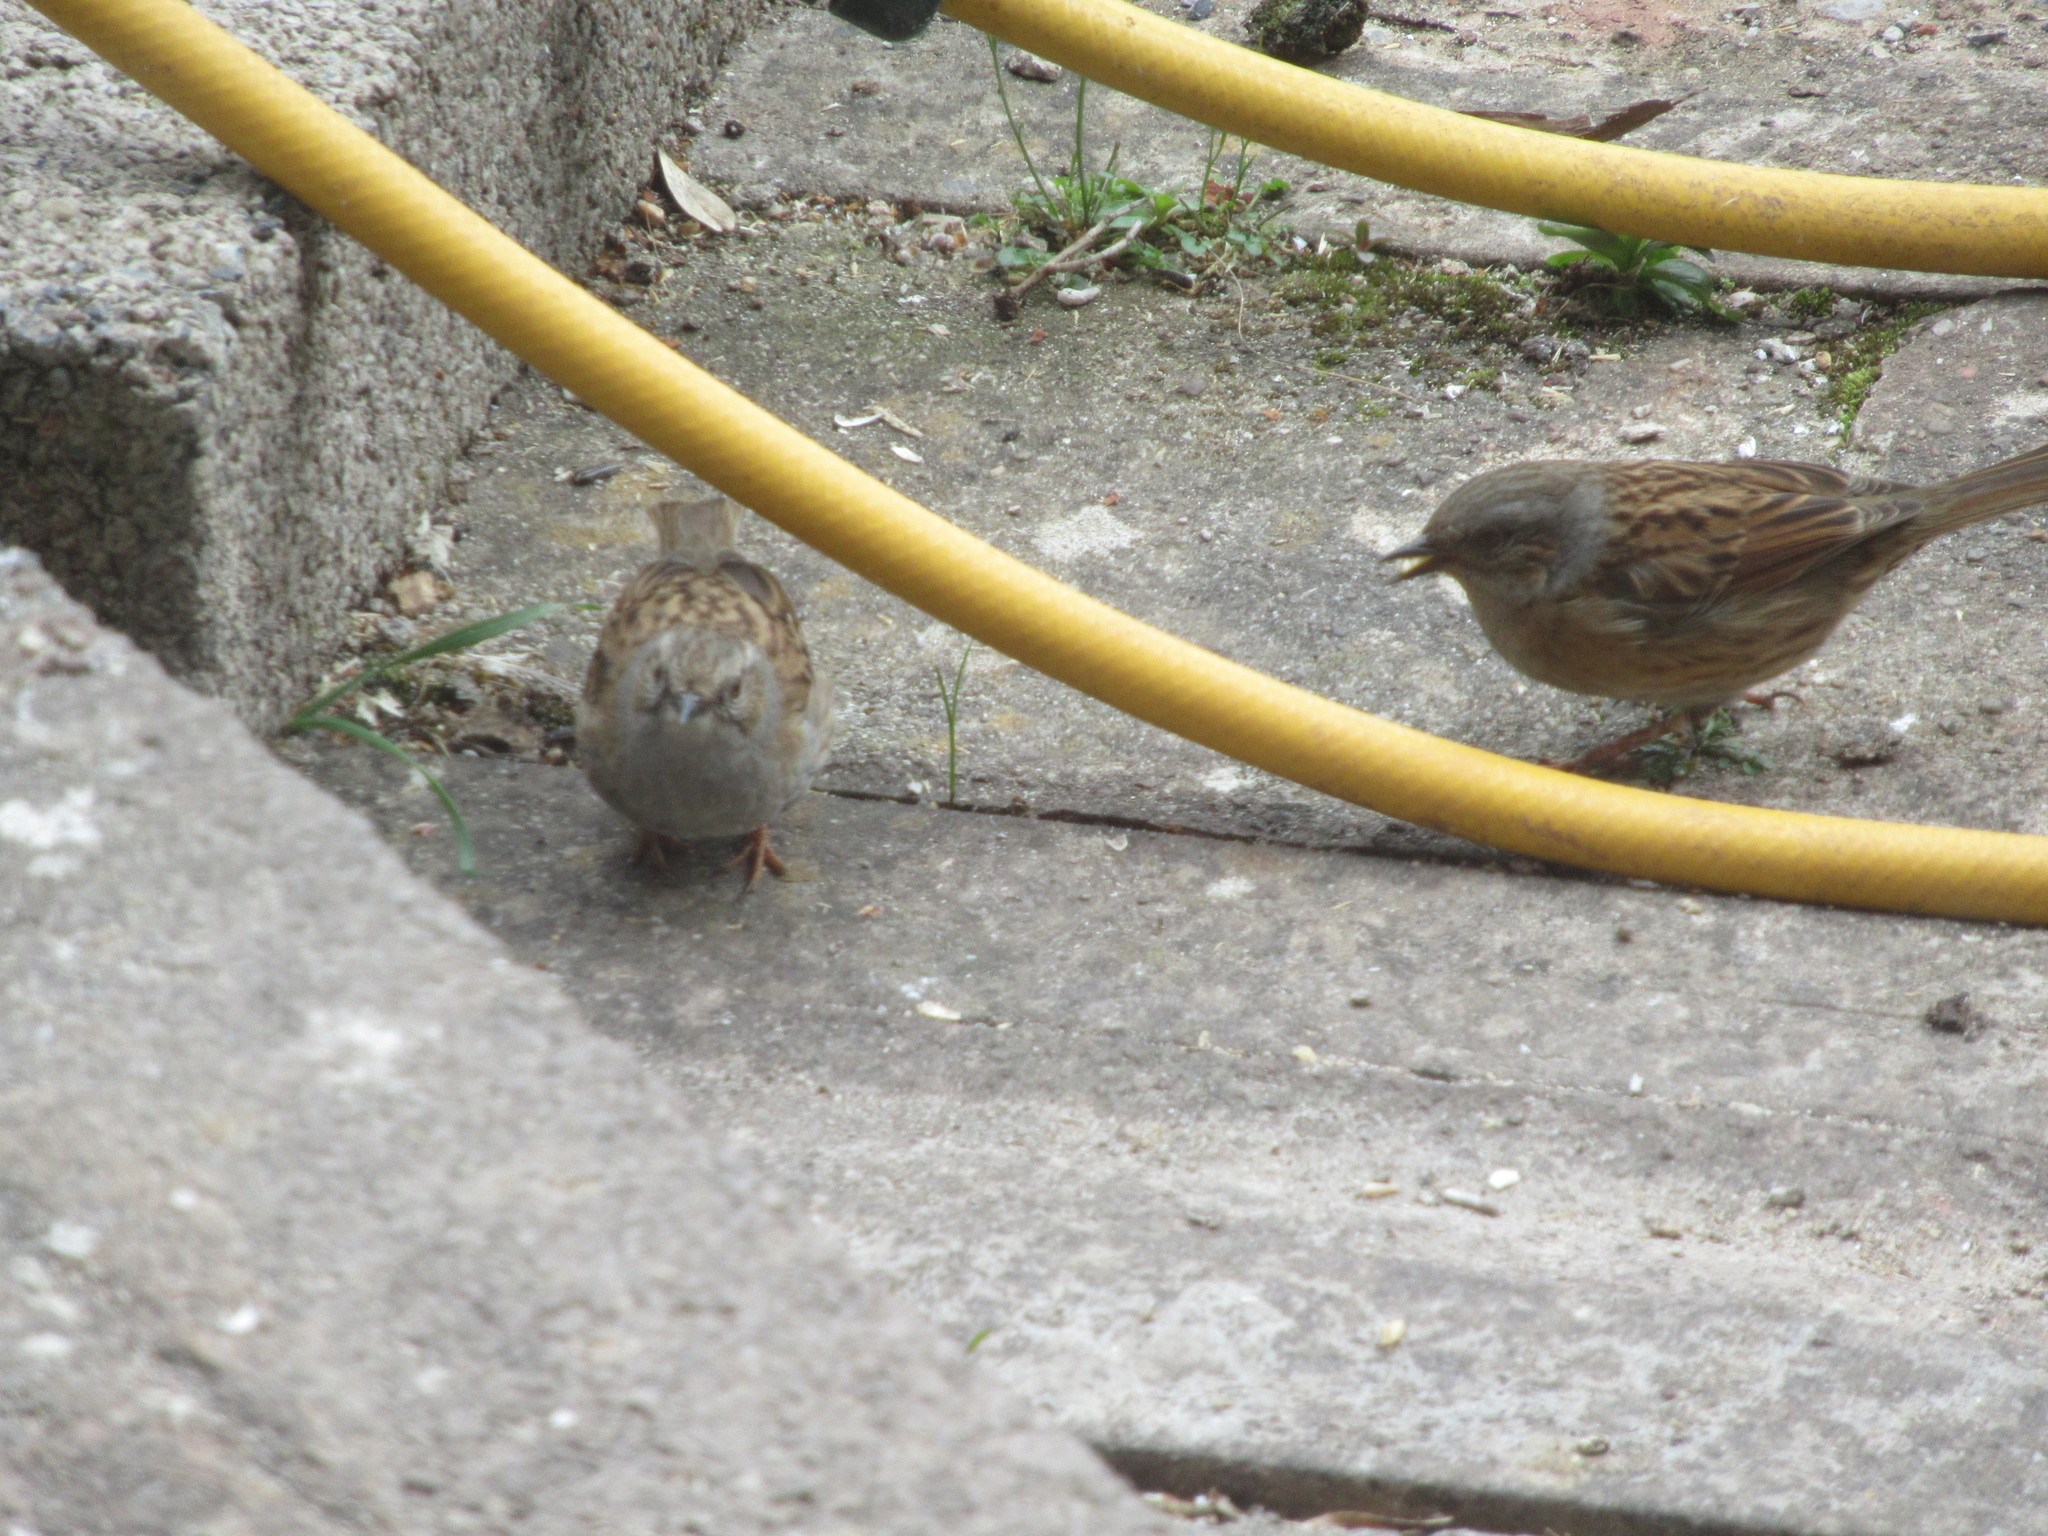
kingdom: Animalia
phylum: Chordata
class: Aves
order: Passeriformes
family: Prunellidae
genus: Prunella
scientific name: Prunella modularis
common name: Dunnock
